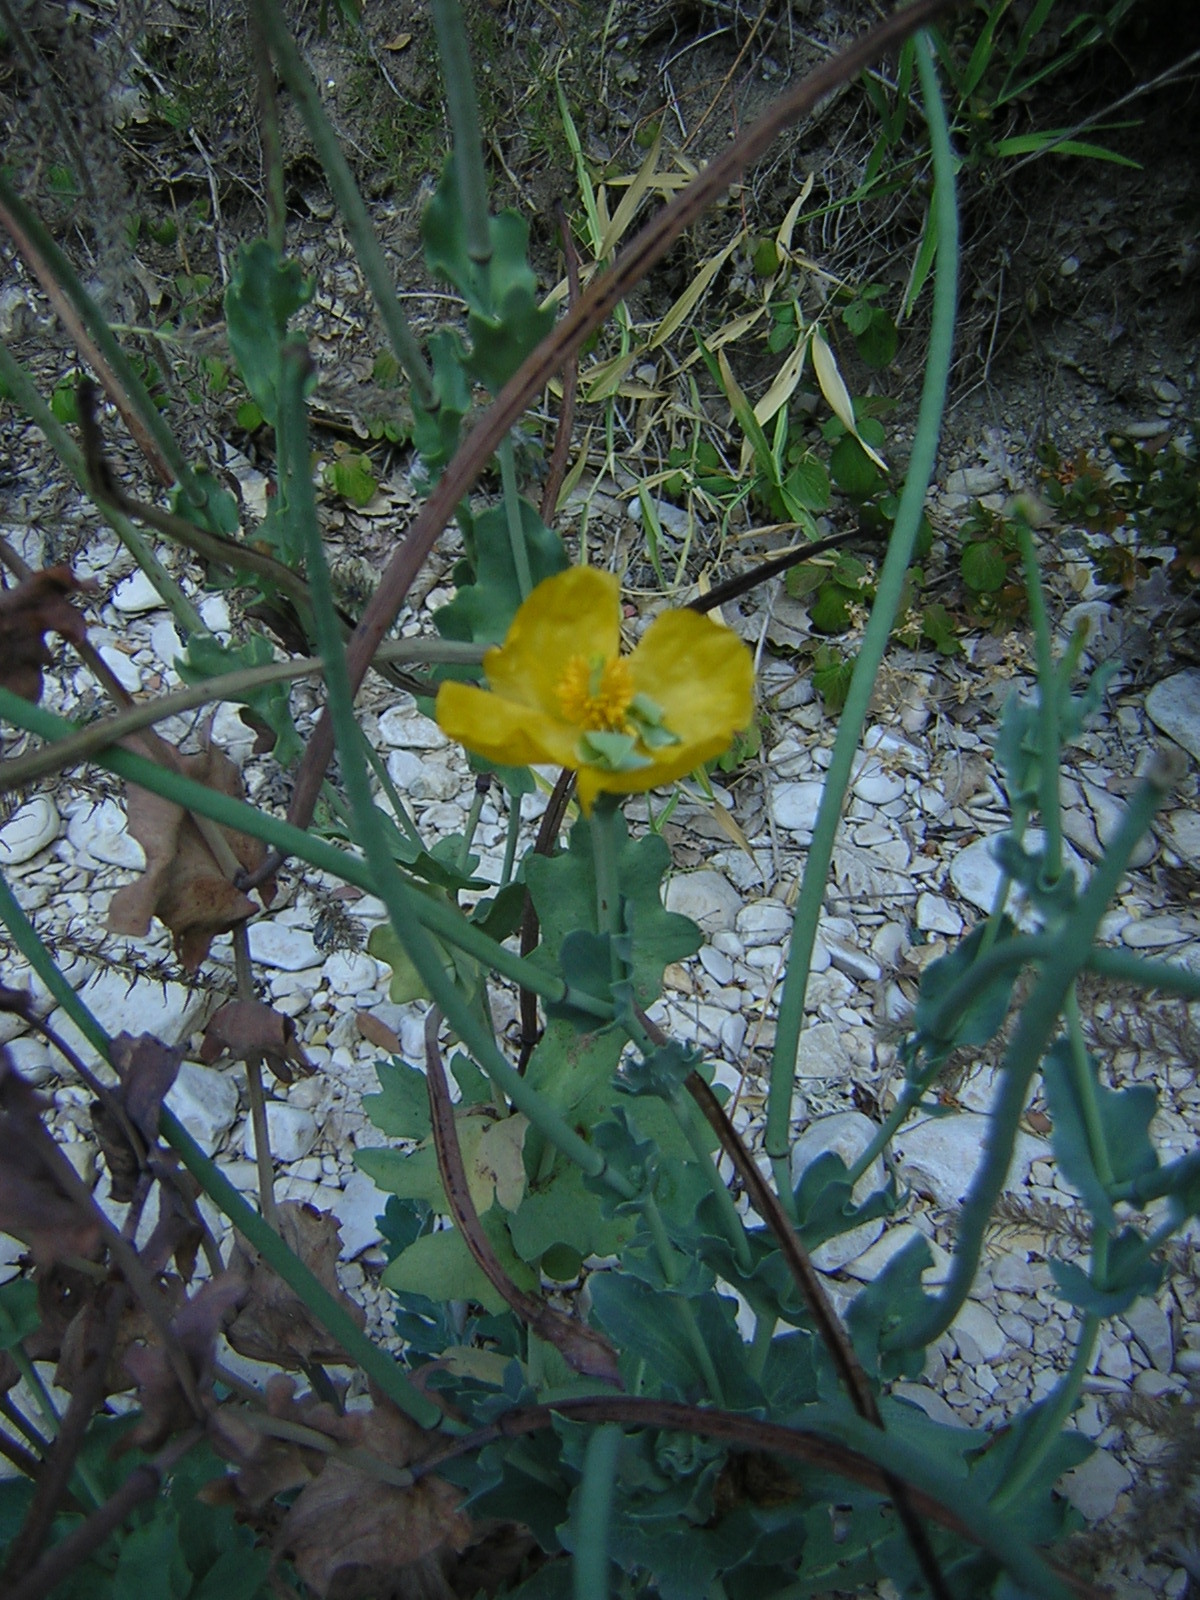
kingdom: Plantae
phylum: Tracheophyta
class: Magnoliopsida
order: Ranunculales
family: Papaveraceae
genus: Glaucium
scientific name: Glaucium flavum
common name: Yellow horned-poppy
